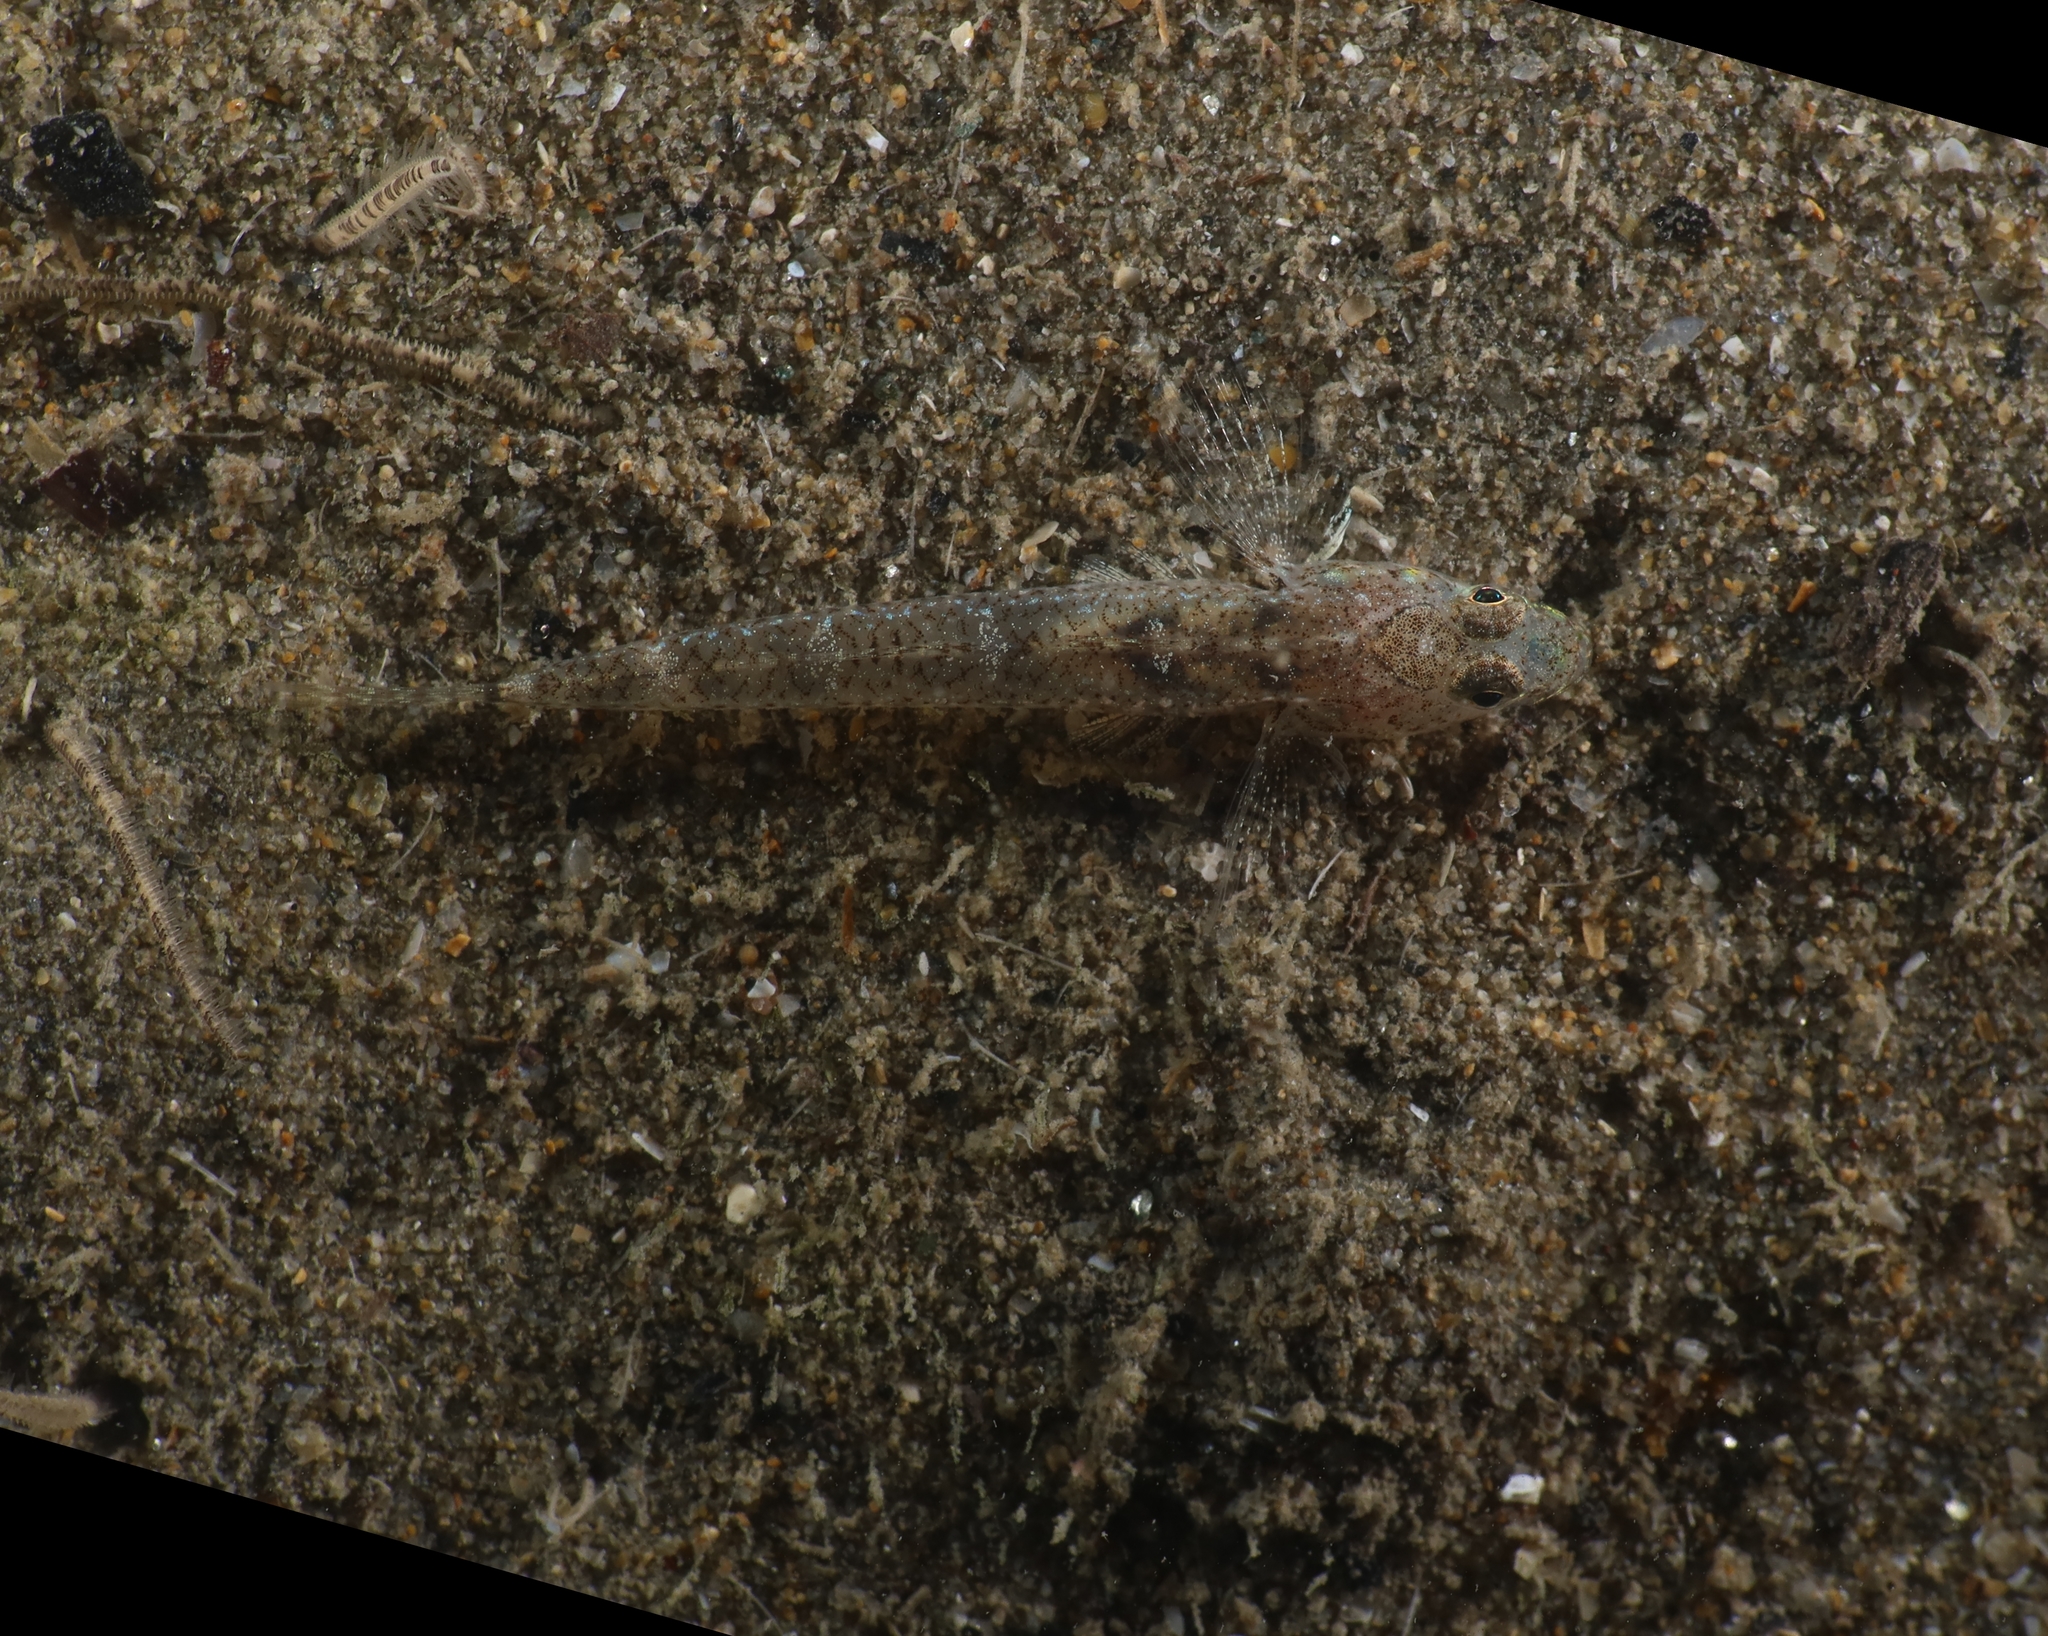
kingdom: Animalia
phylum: Chordata
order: Perciformes
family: Gobiidae
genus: Pomatoschistus
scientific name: Pomatoschistus marmoratus
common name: Marbled goby
